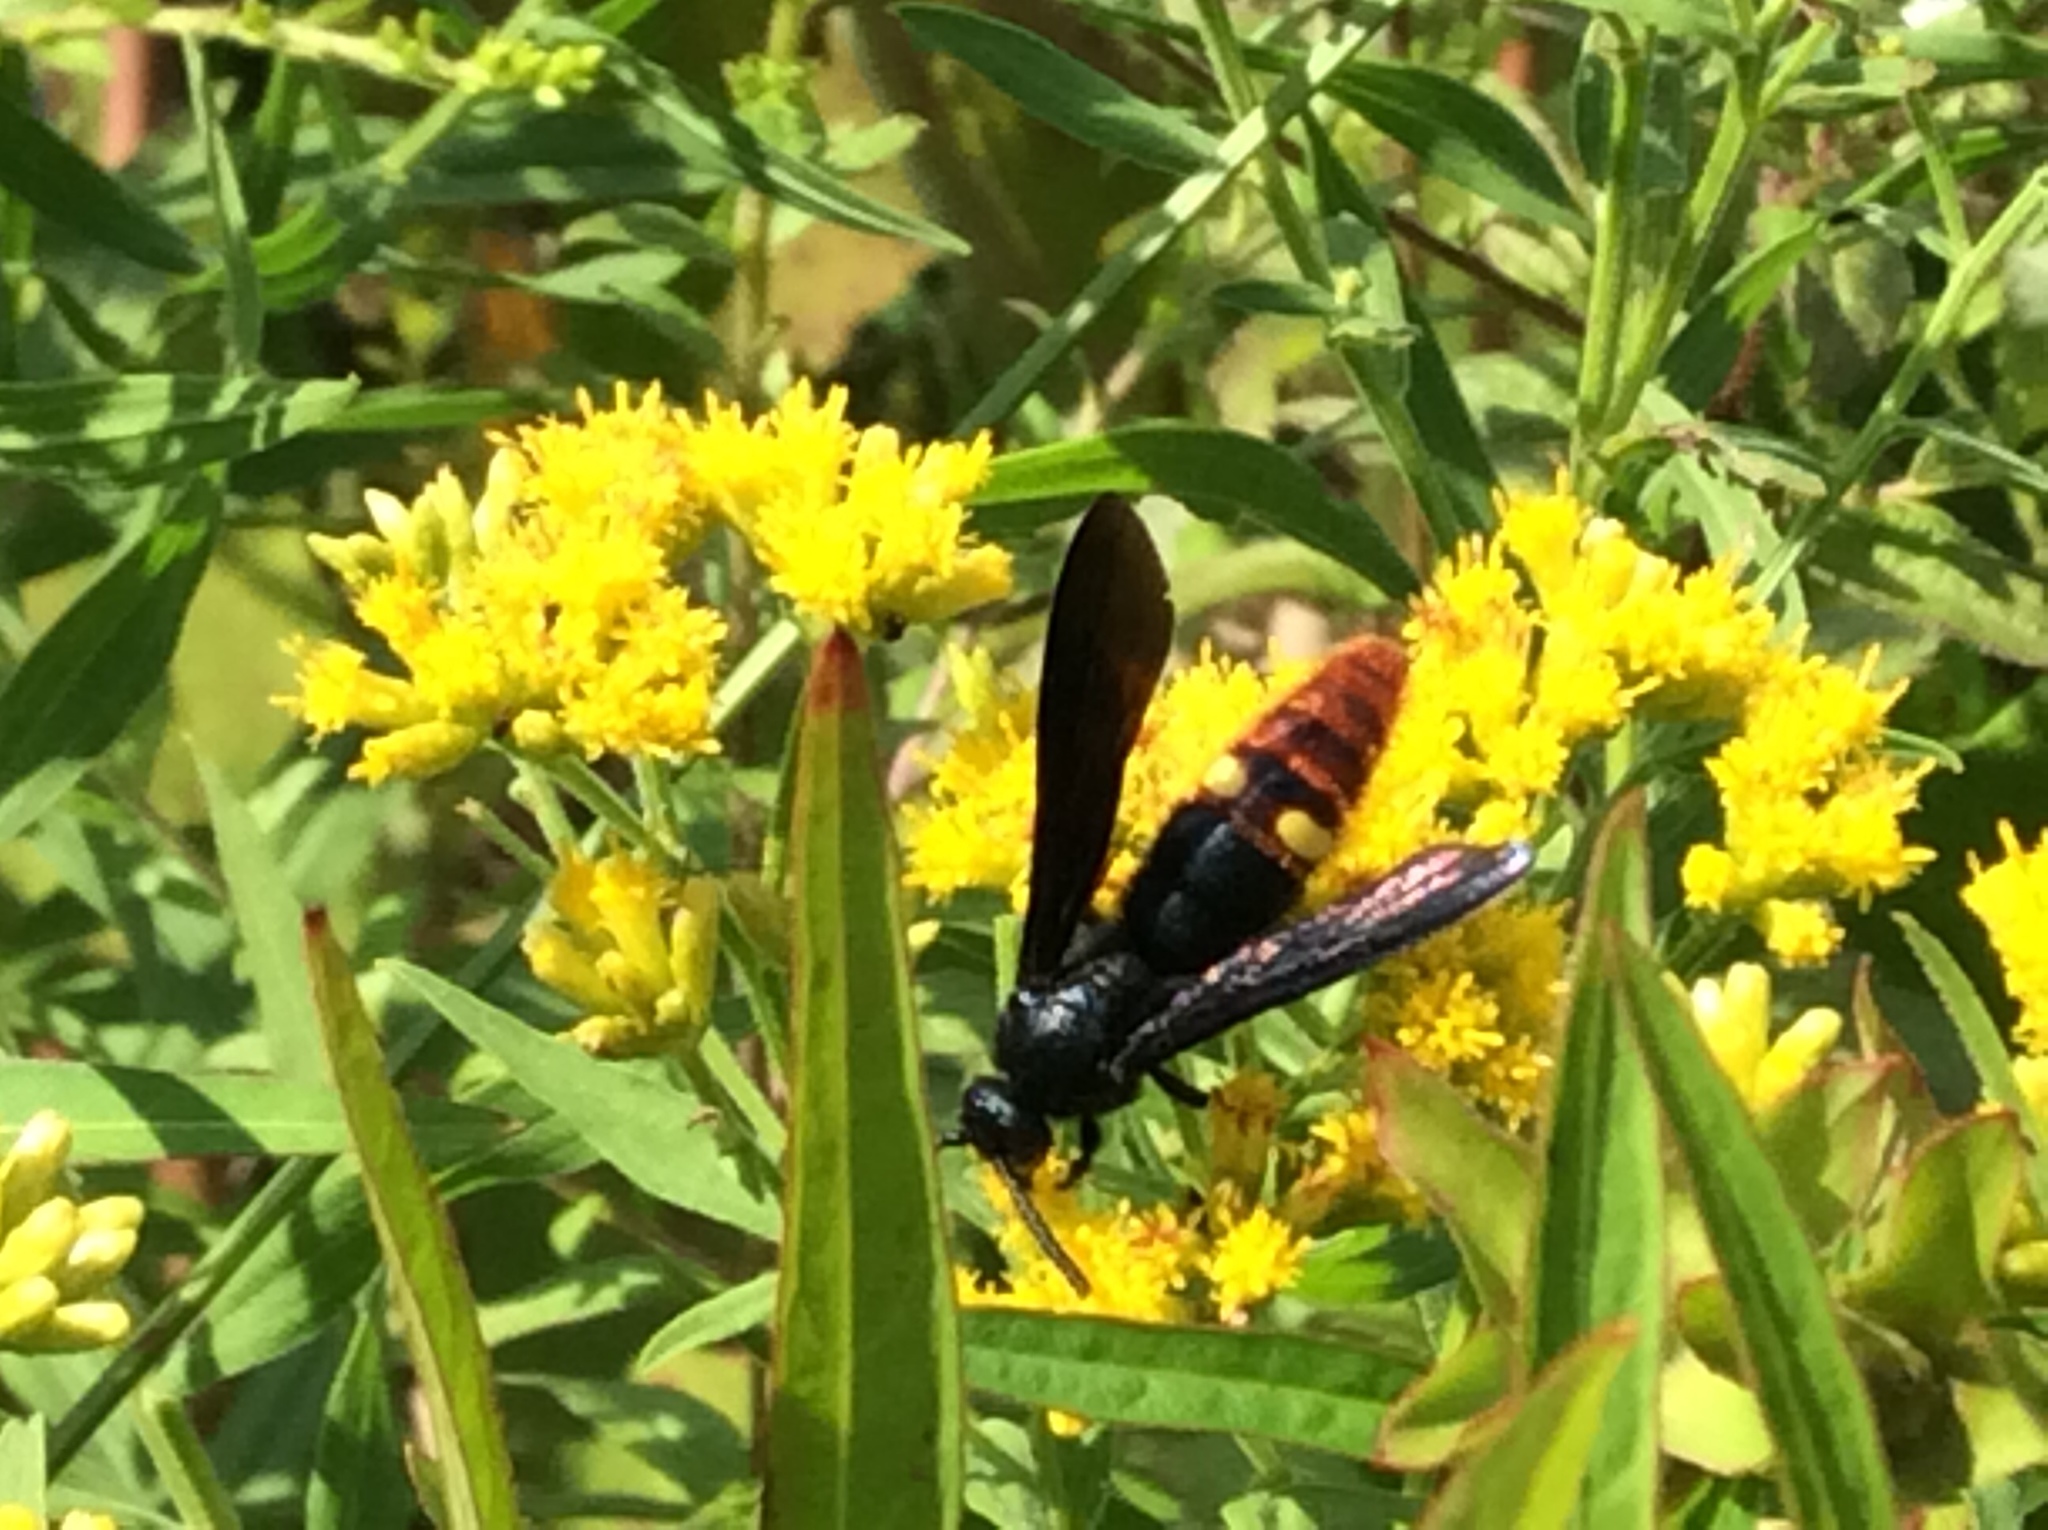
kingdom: Animalia
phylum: Arthropoda
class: Insecta
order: Hymenoptera
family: Scoliidae
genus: Scolia
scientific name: Scolia dubia
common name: Blue-winged scoliid wasp
